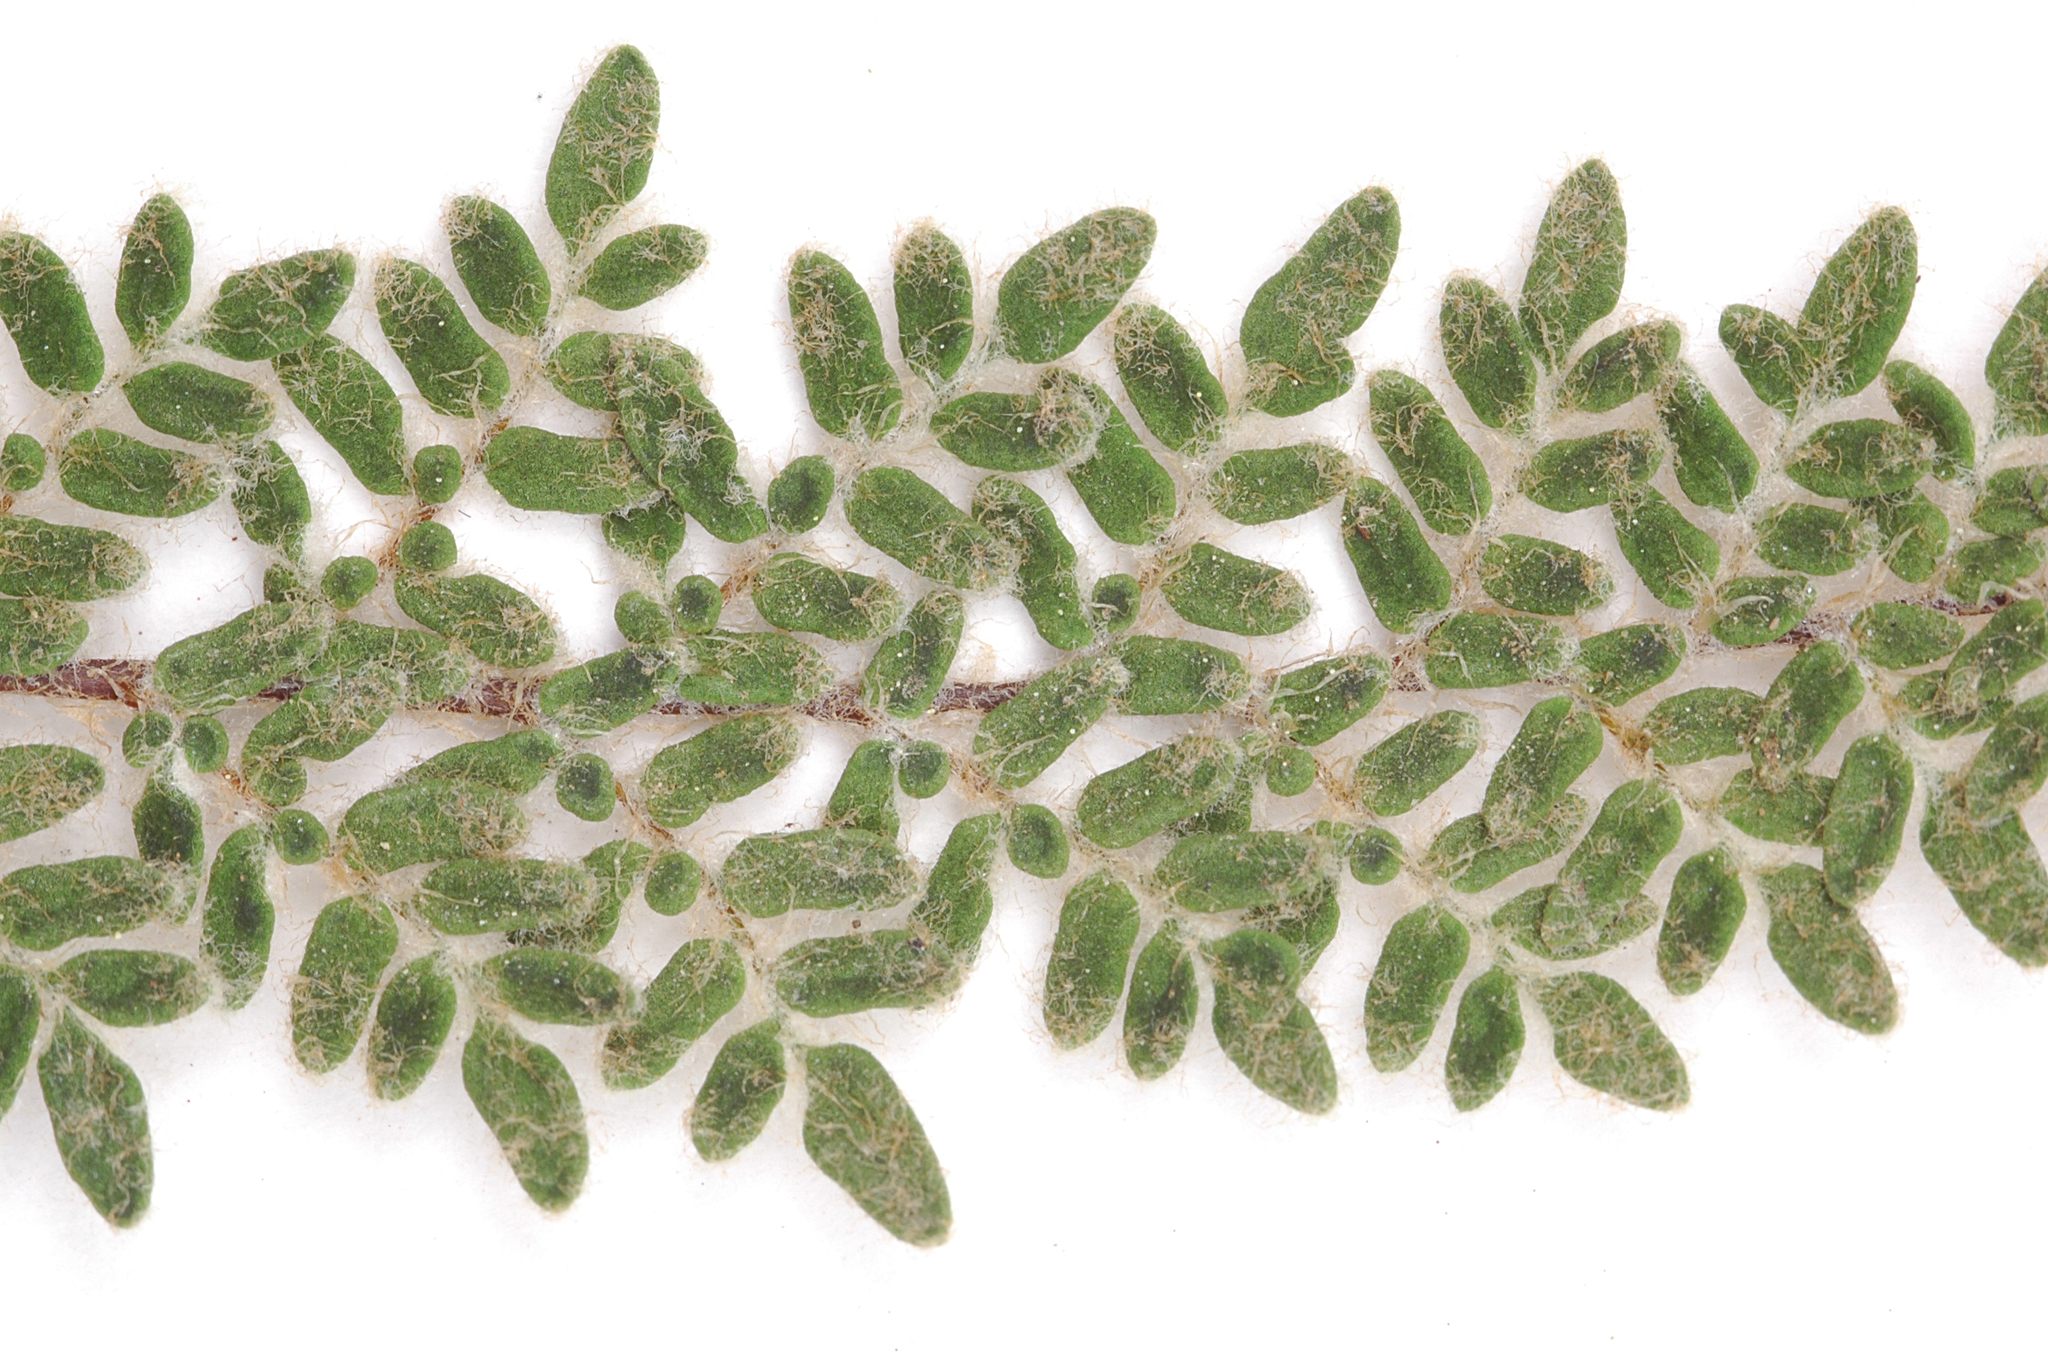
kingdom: Plantae
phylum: Tracheophyta
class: Polypodiopsida
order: Polypodiales
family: Pteridaceae
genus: Myriopteris
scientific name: Myriopteris gracillima
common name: Lace fern
